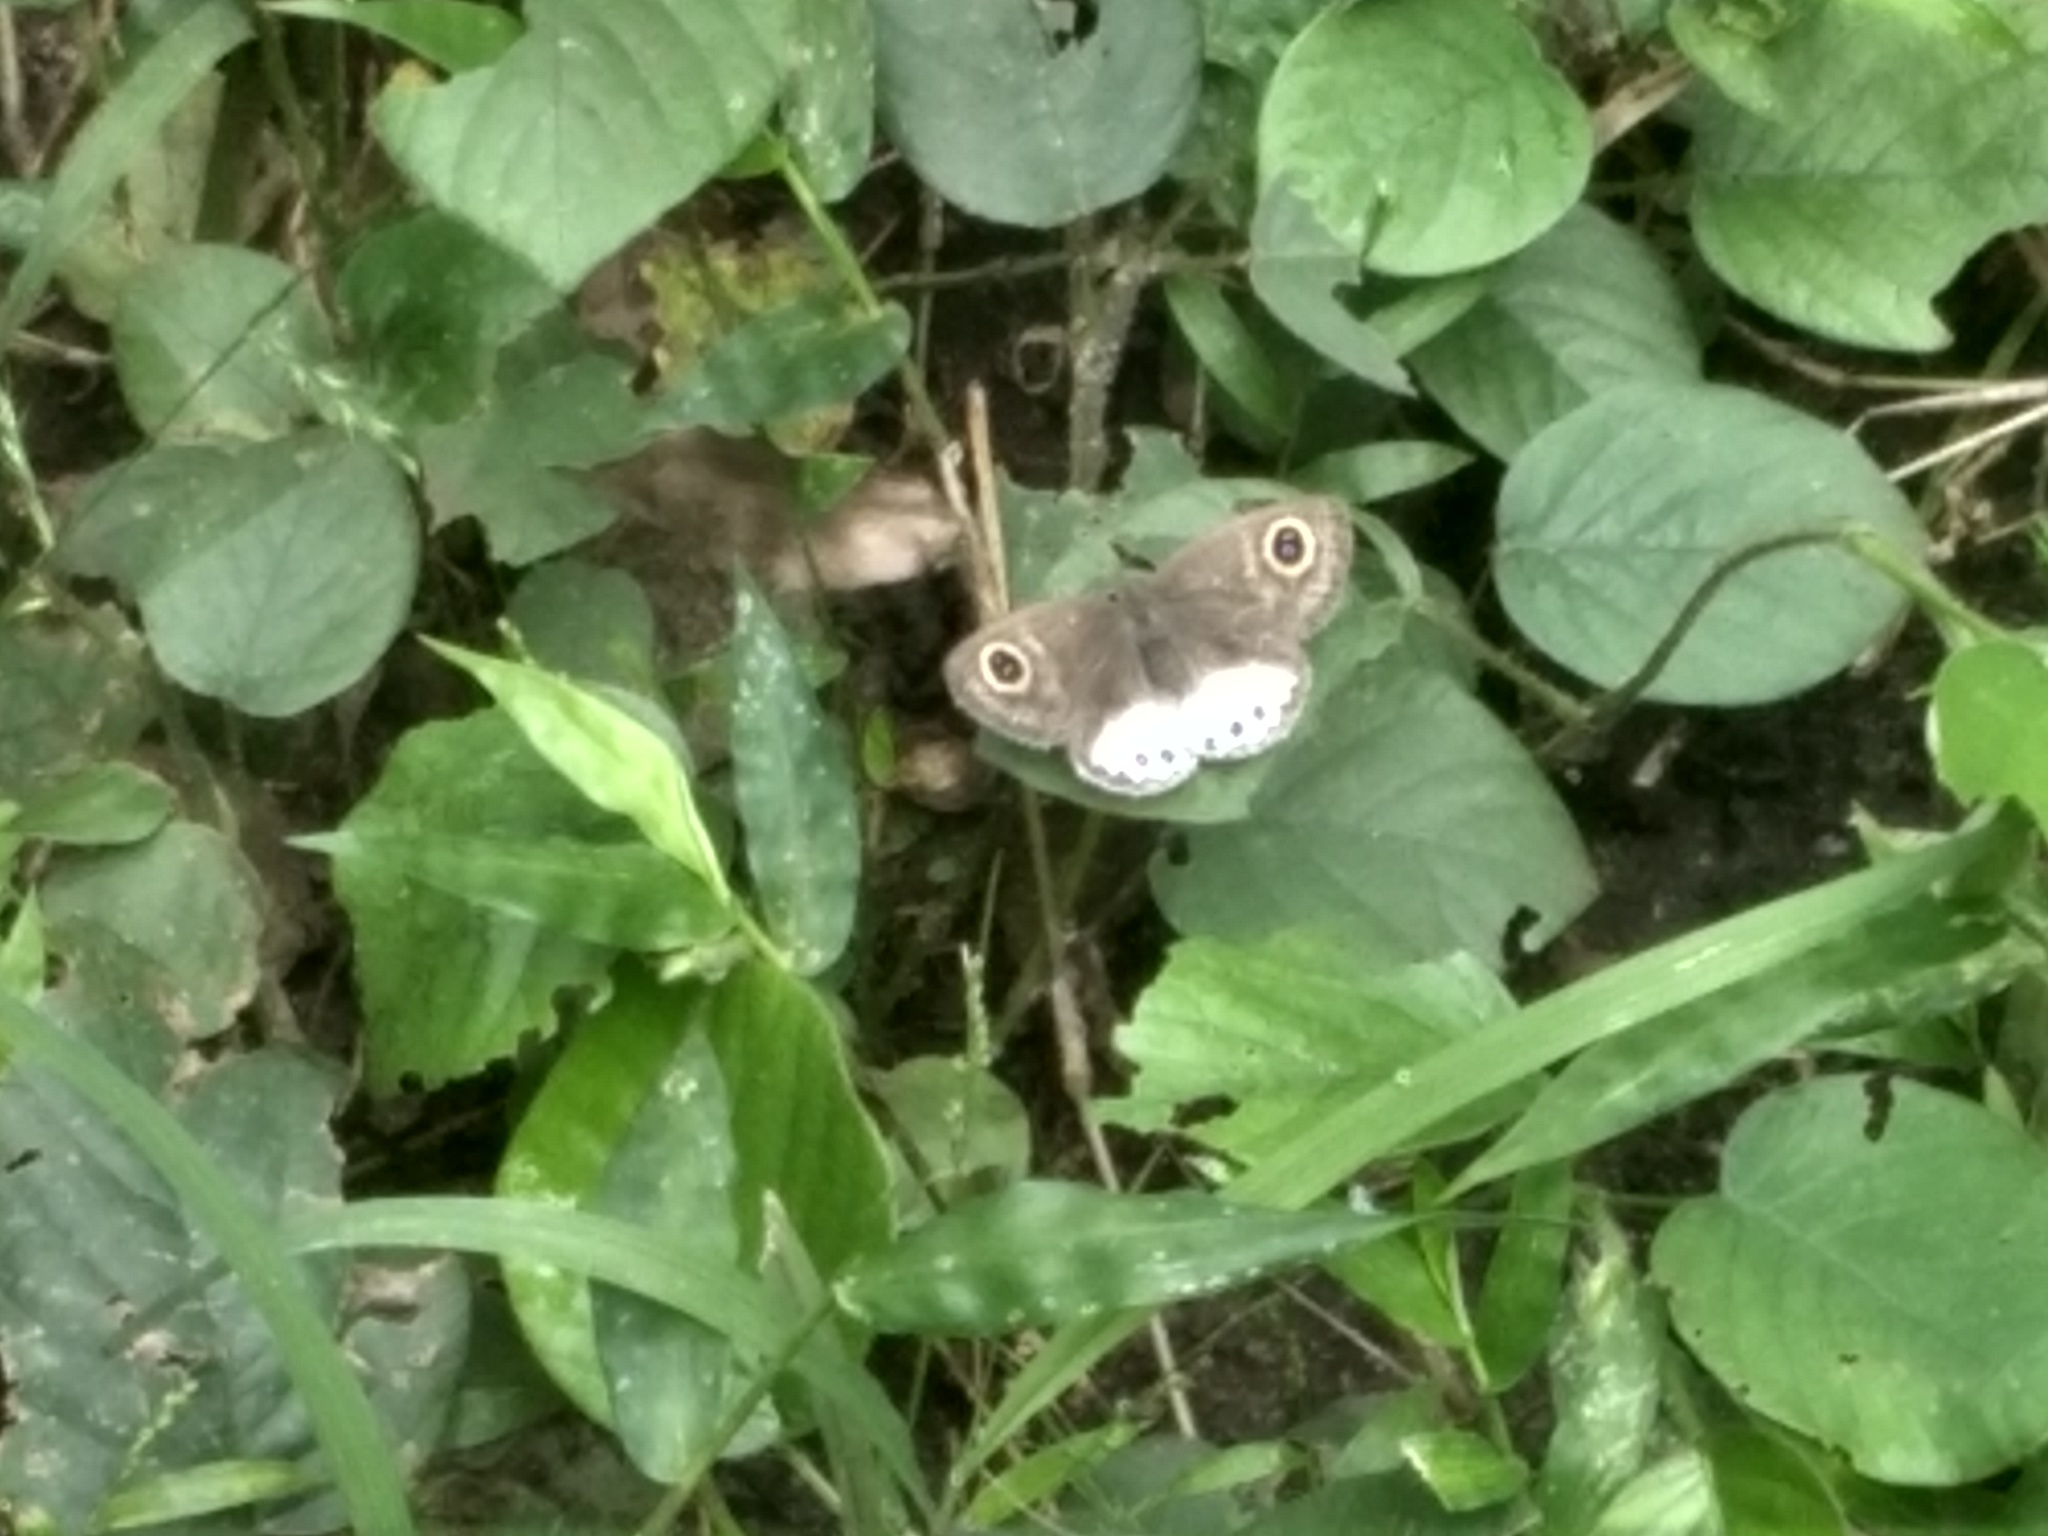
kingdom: Animalia
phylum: Arthropoda
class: Insecta
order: Lepidoptera
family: Nymphalidae
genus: Ypthima
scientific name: Ypthima ceylonica
